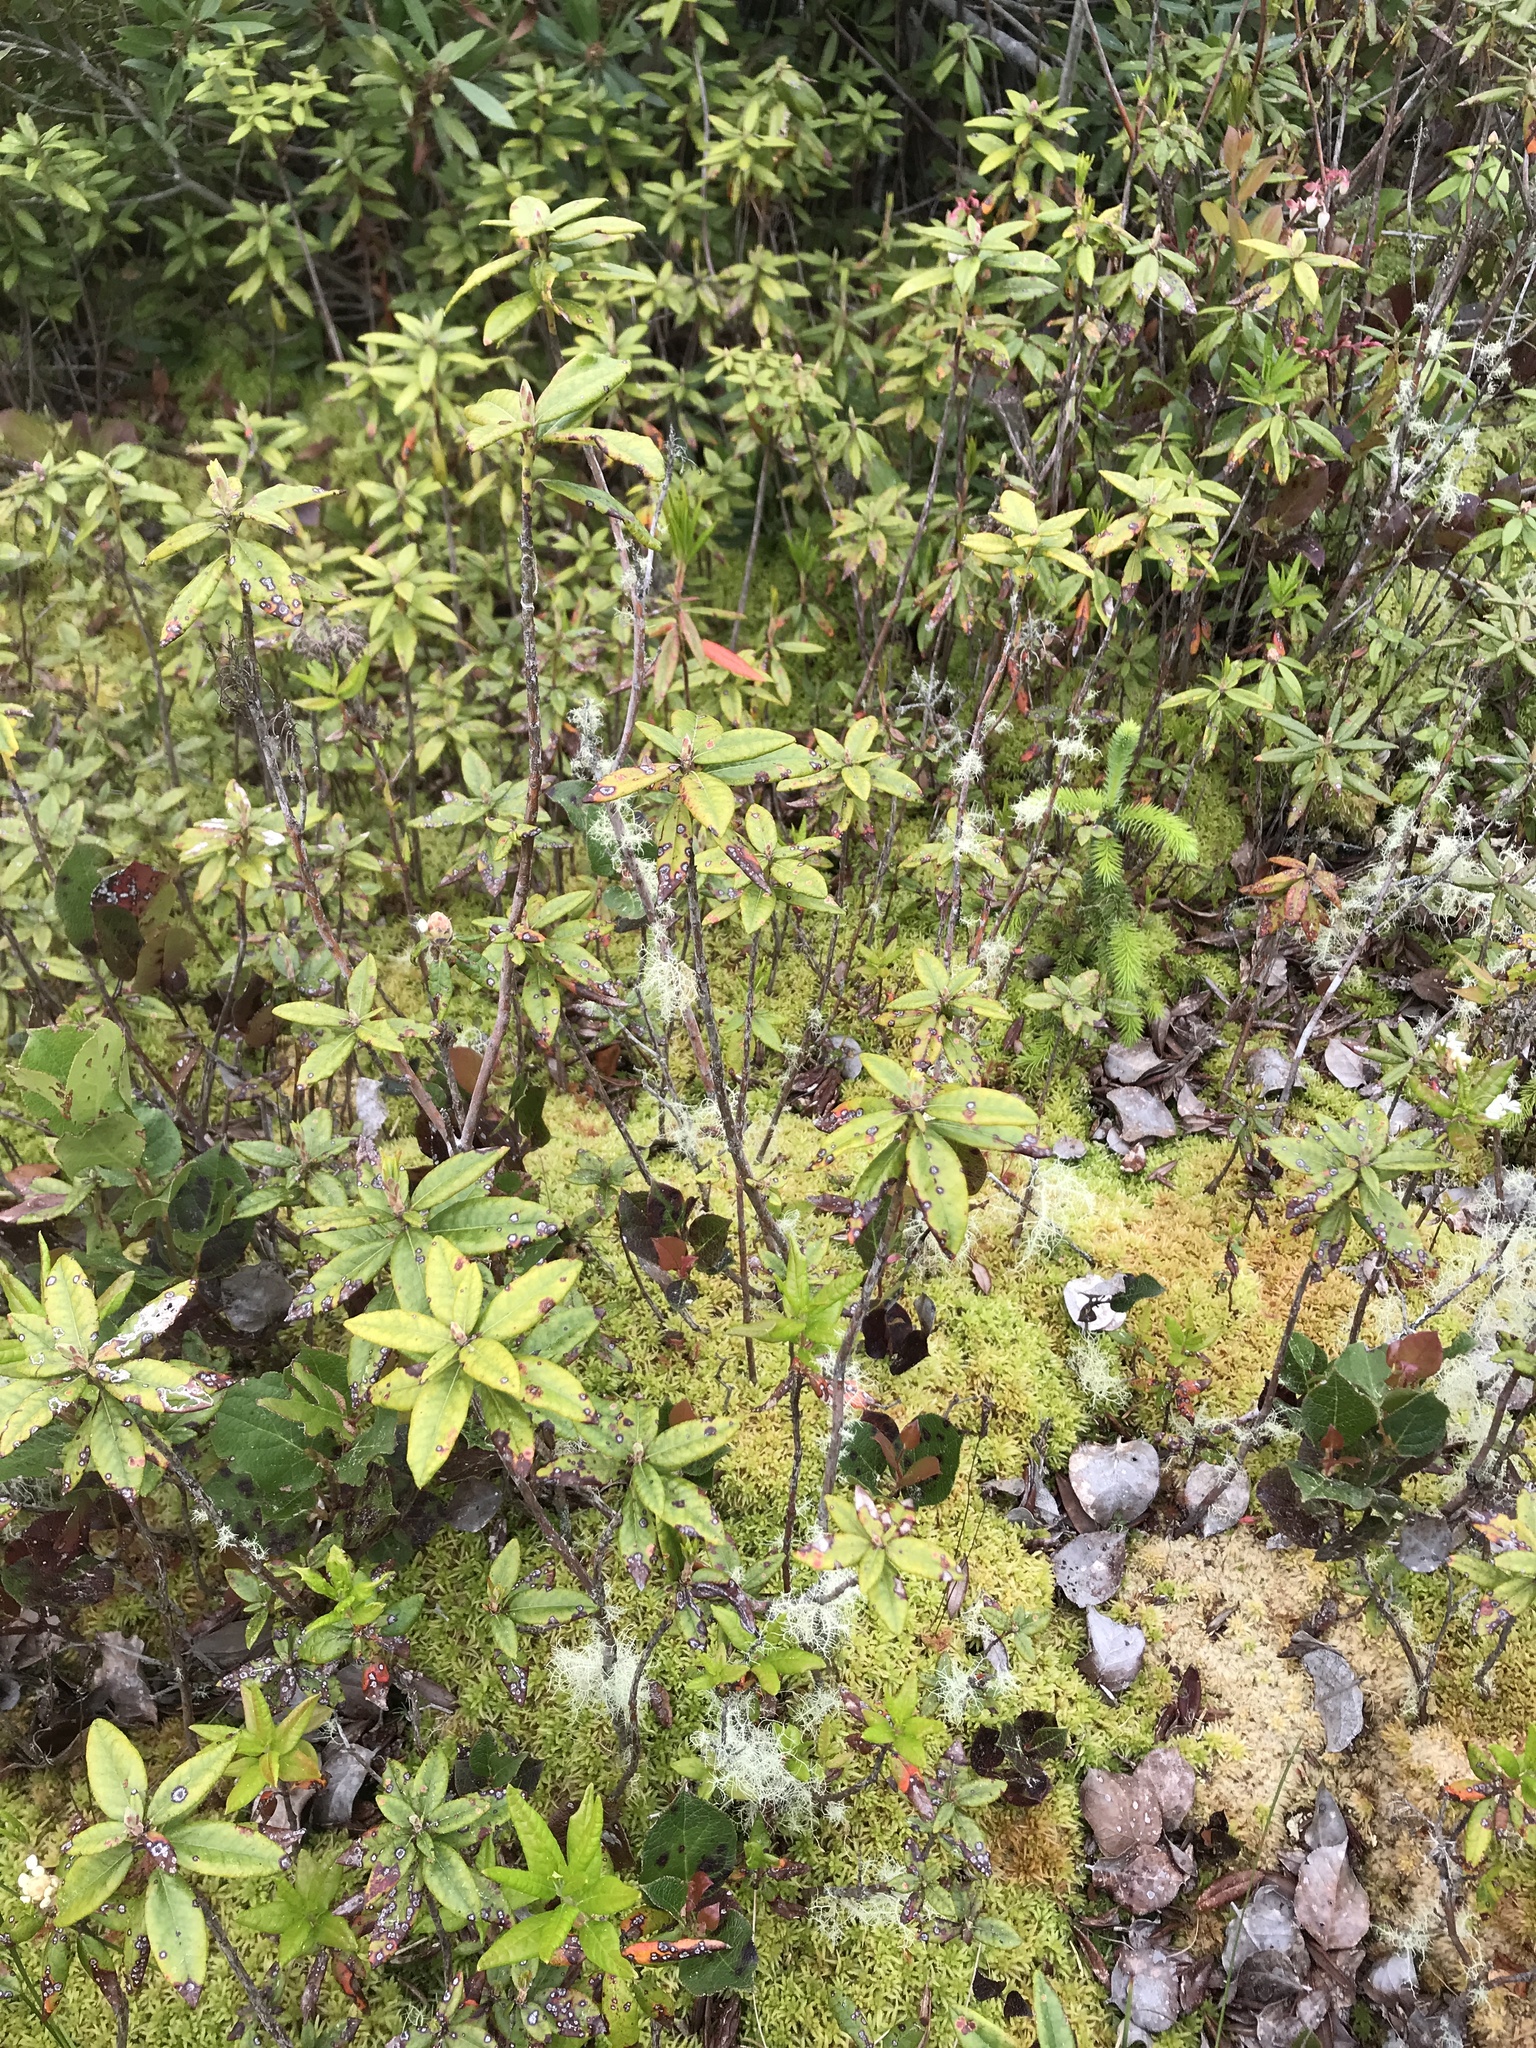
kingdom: Plantae
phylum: Tracheophyta
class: Magnoliopsida
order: Ericales
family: Ericaceae
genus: Rhododendron
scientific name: Rhododendron columbianum
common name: Western labrador tea
